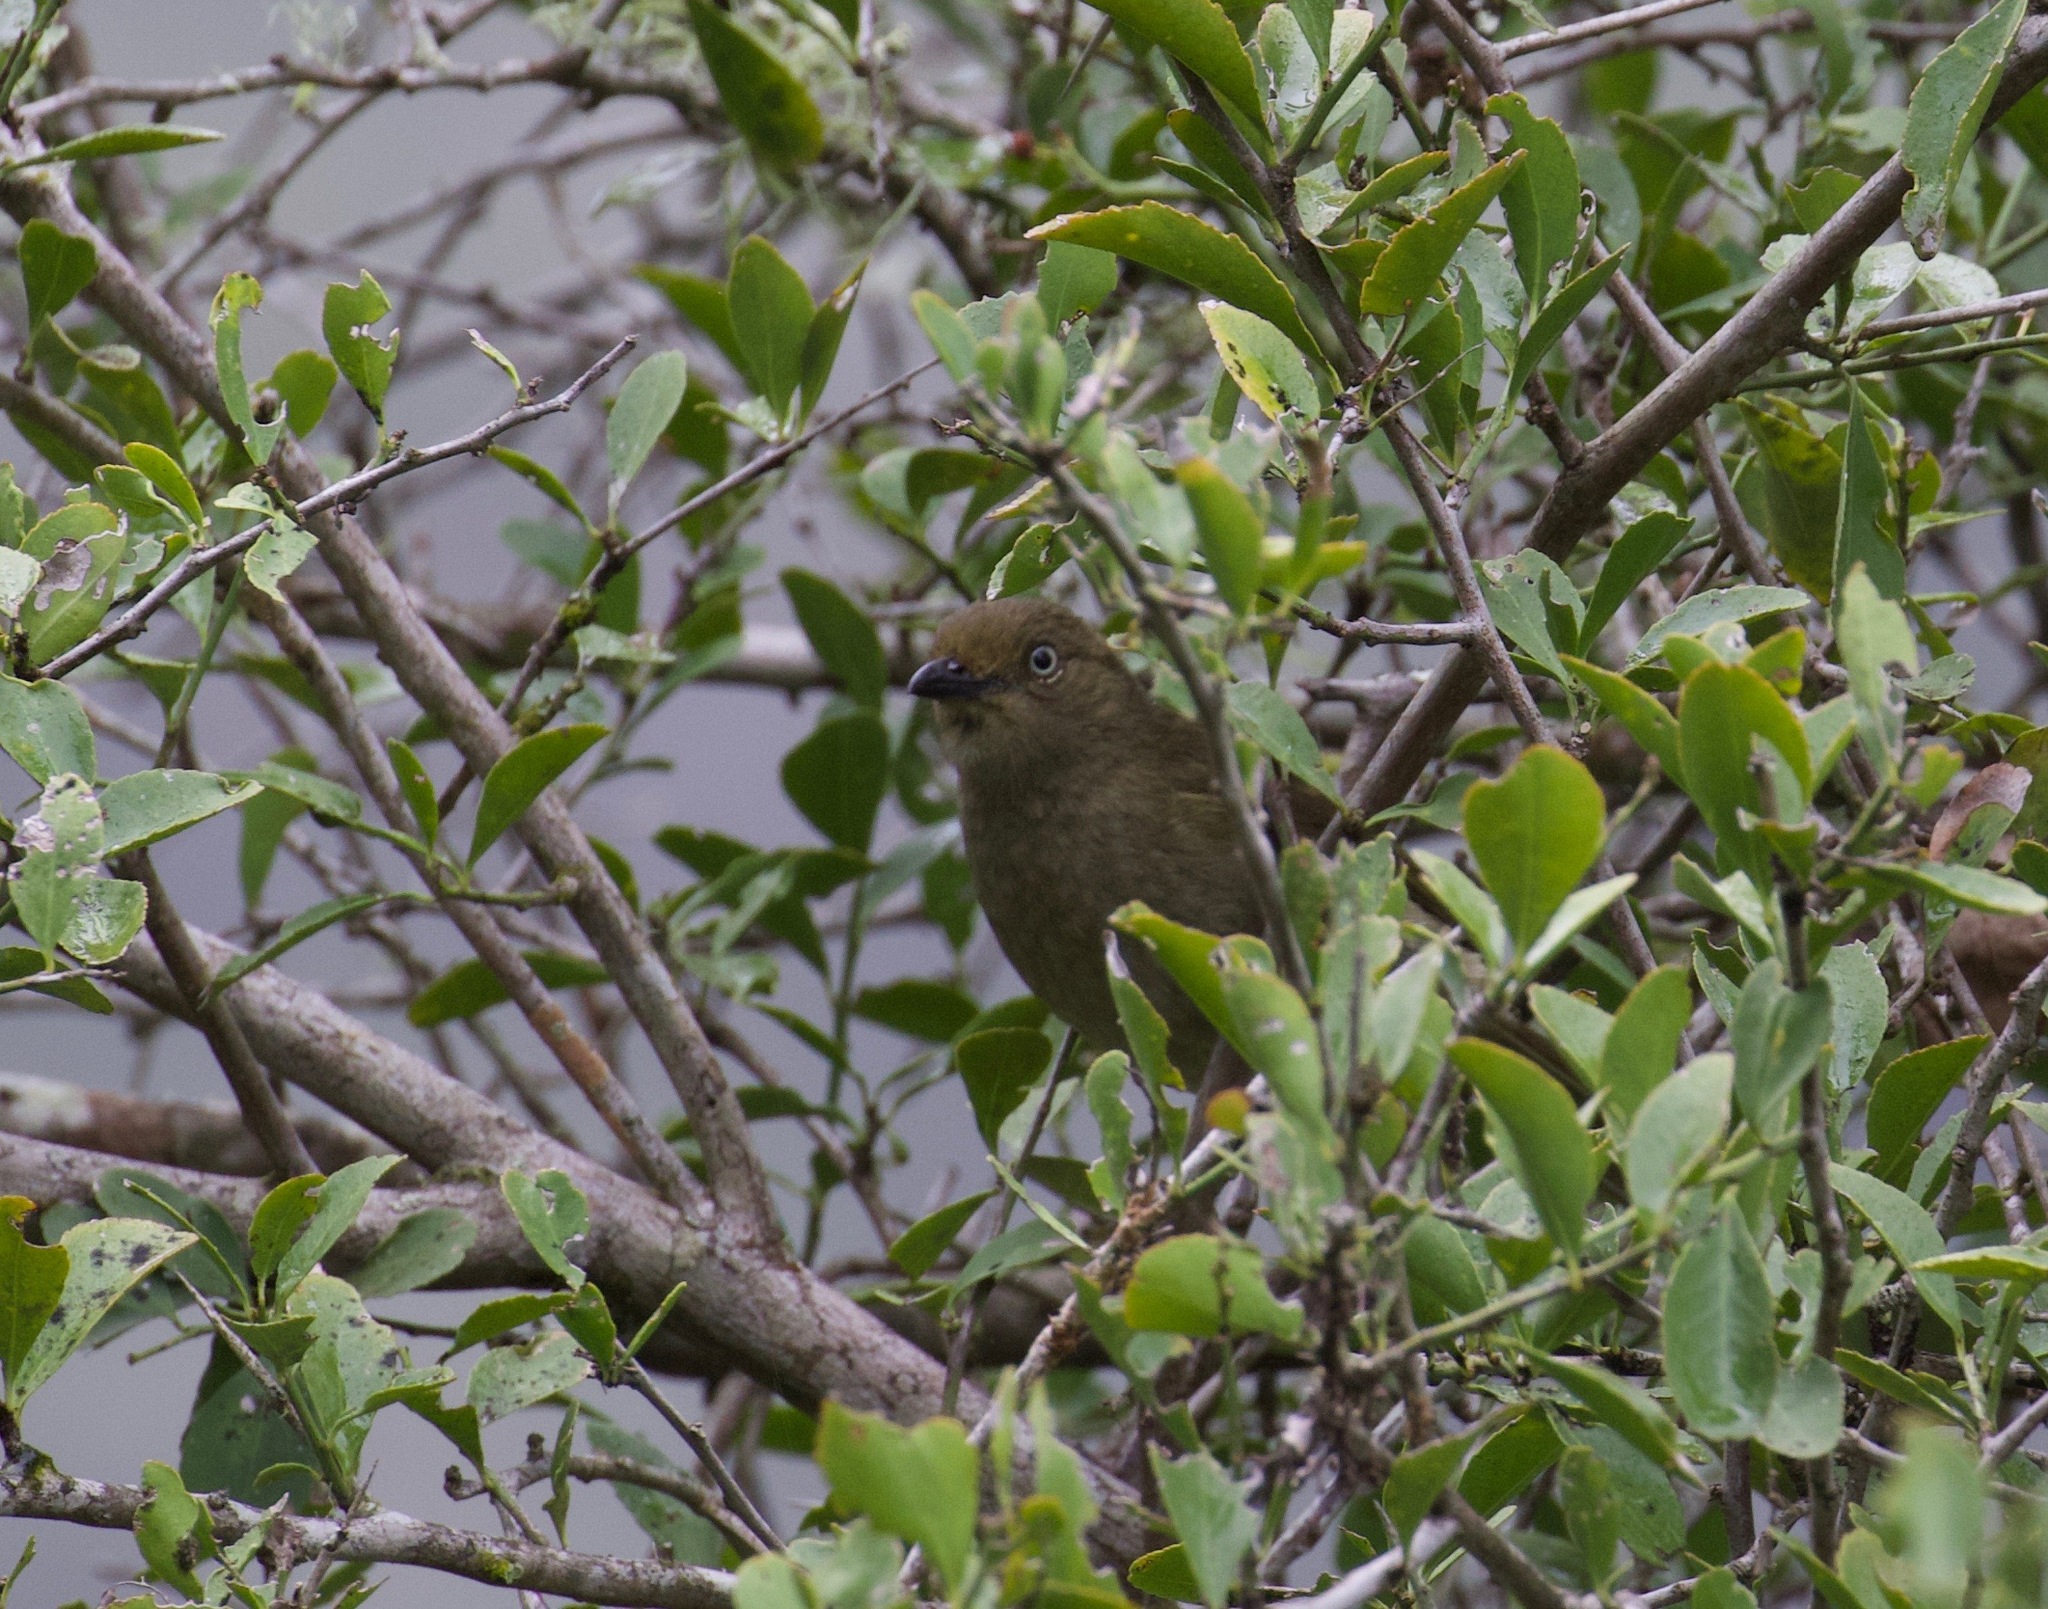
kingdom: Animalia
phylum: Chordata
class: Aves
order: Passeriformes
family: Pycnonotidae
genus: Andropadus
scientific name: Andropadus importunus
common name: Sombre greenbul
